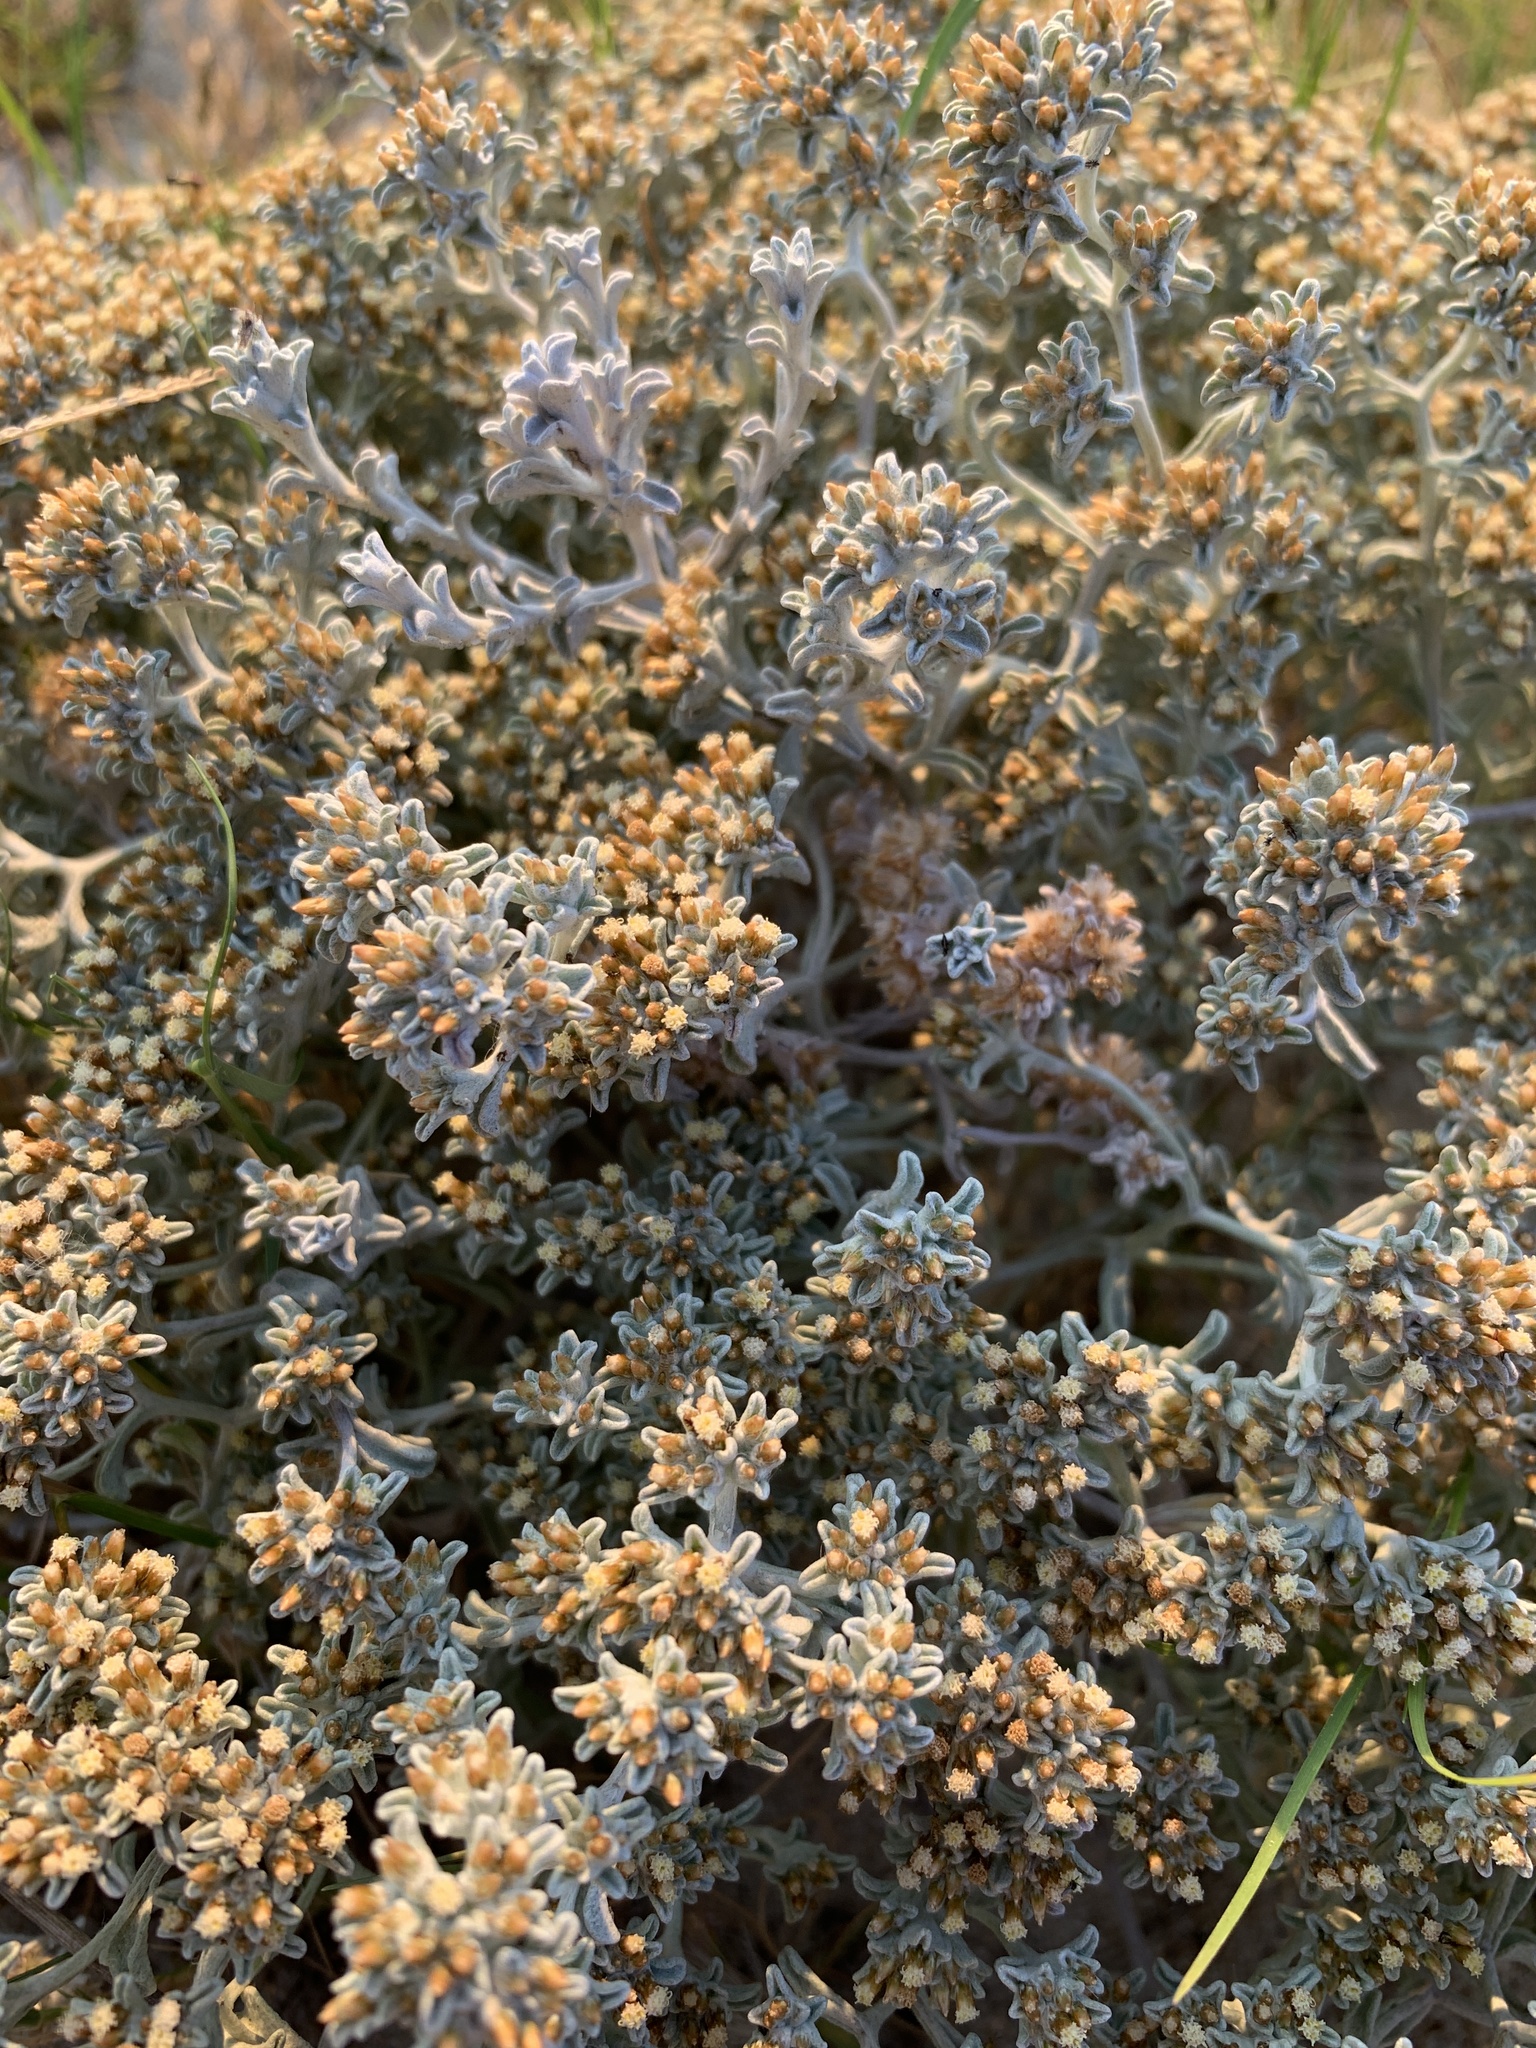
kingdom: Plantae
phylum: Tracheophyta
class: Magnoliopsida
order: Asterales
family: Asteraceae
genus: Helichrysum
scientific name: Helichrysum litorale
